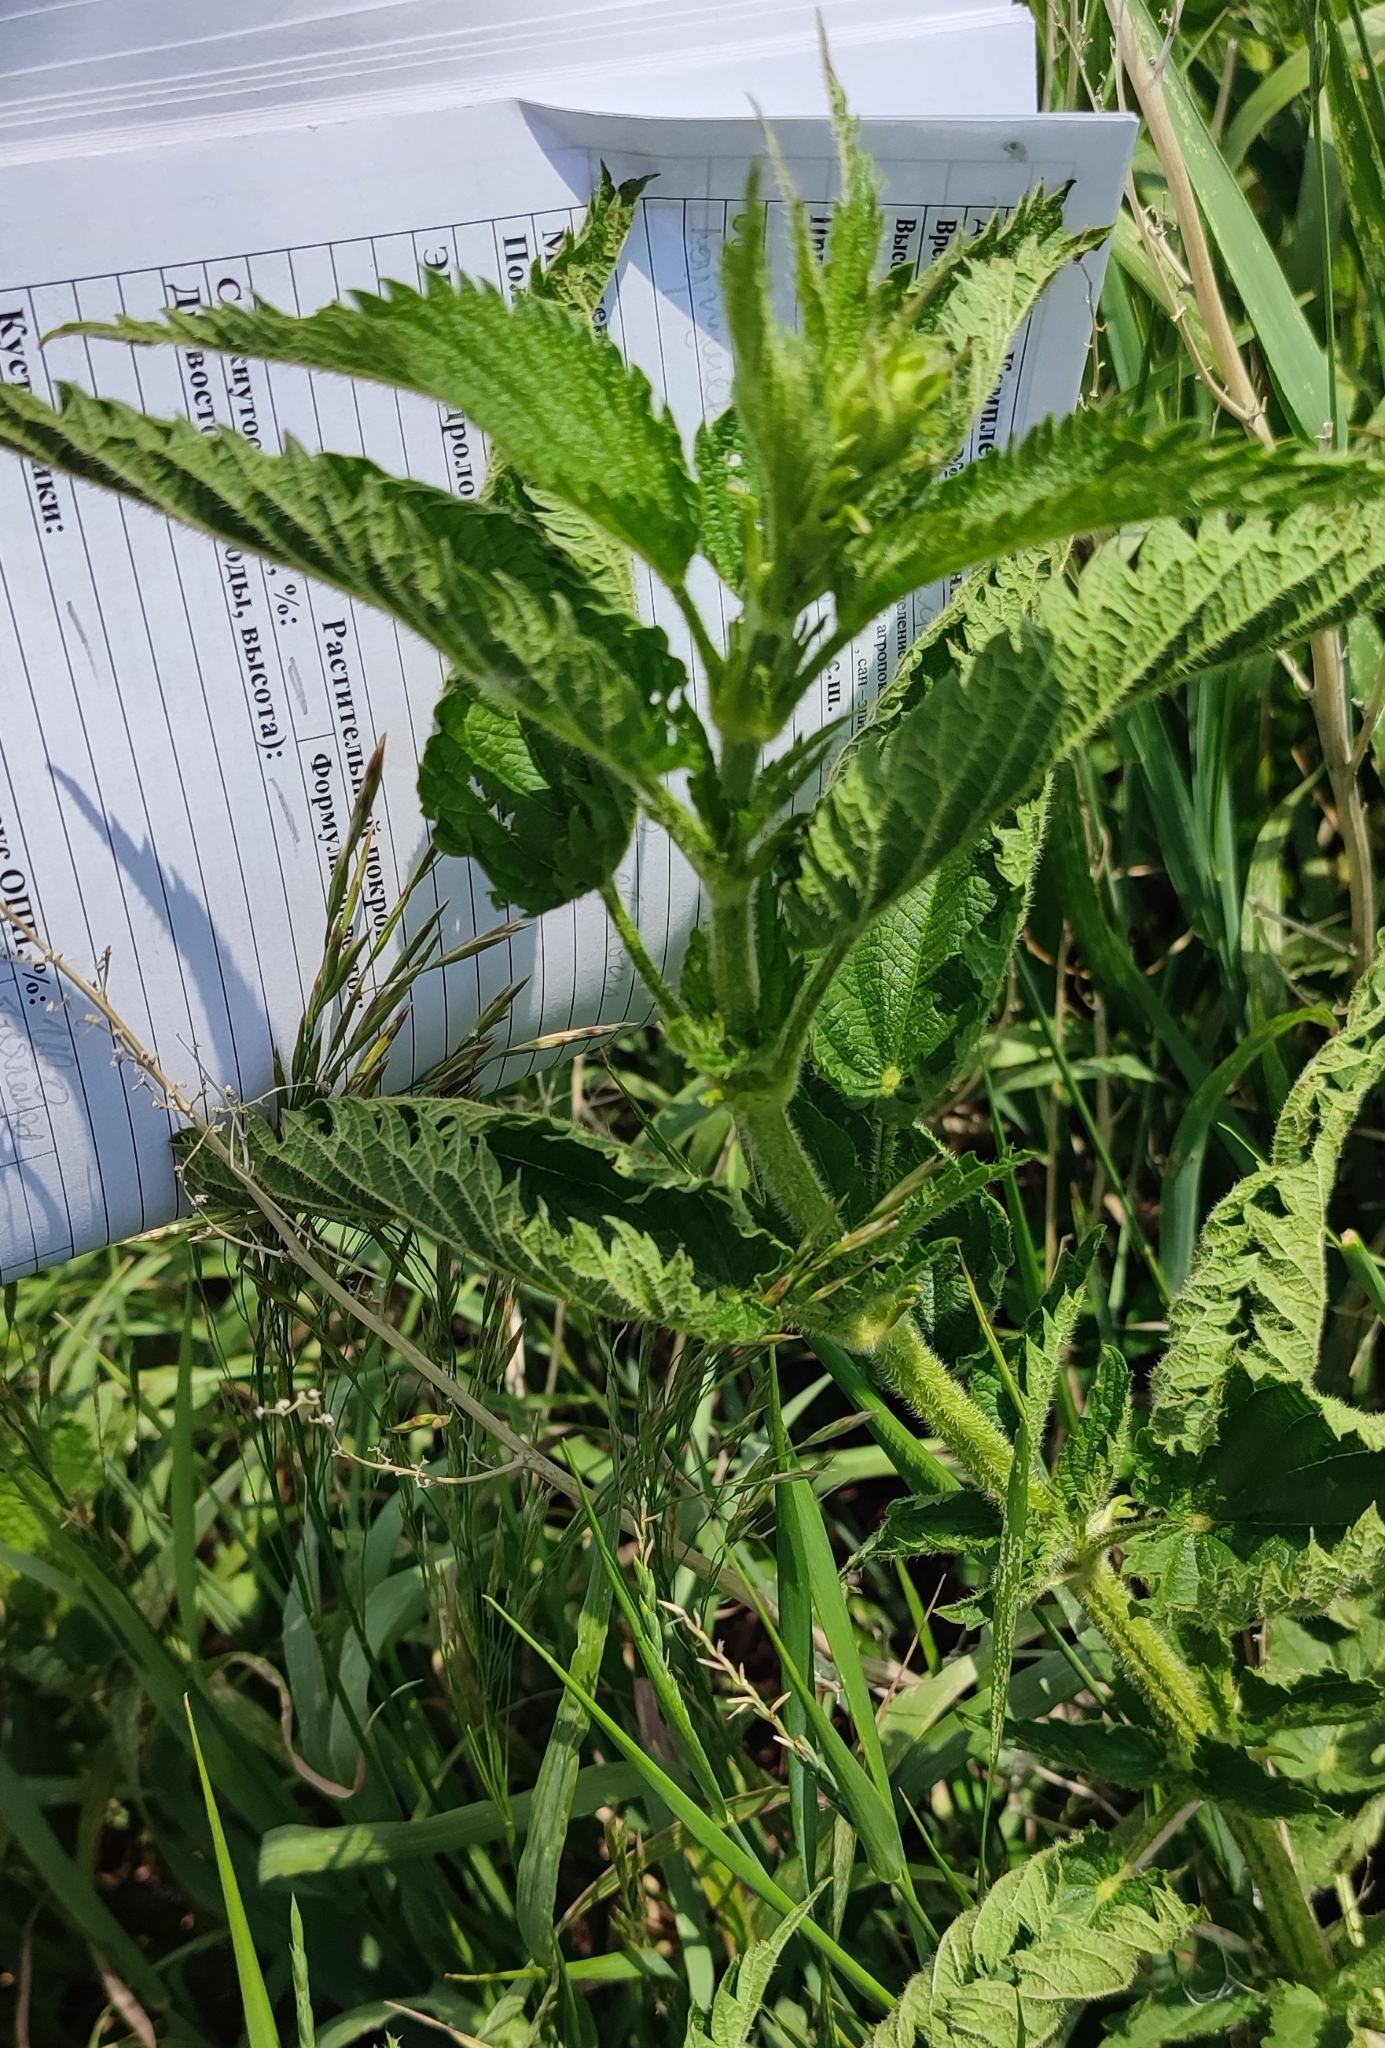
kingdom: Plantae
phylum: Tracheophyta
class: Magnoliopsida
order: Rosales
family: Urticaceae
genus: Urtica
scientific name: Urtica dioica
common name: Common nettle
